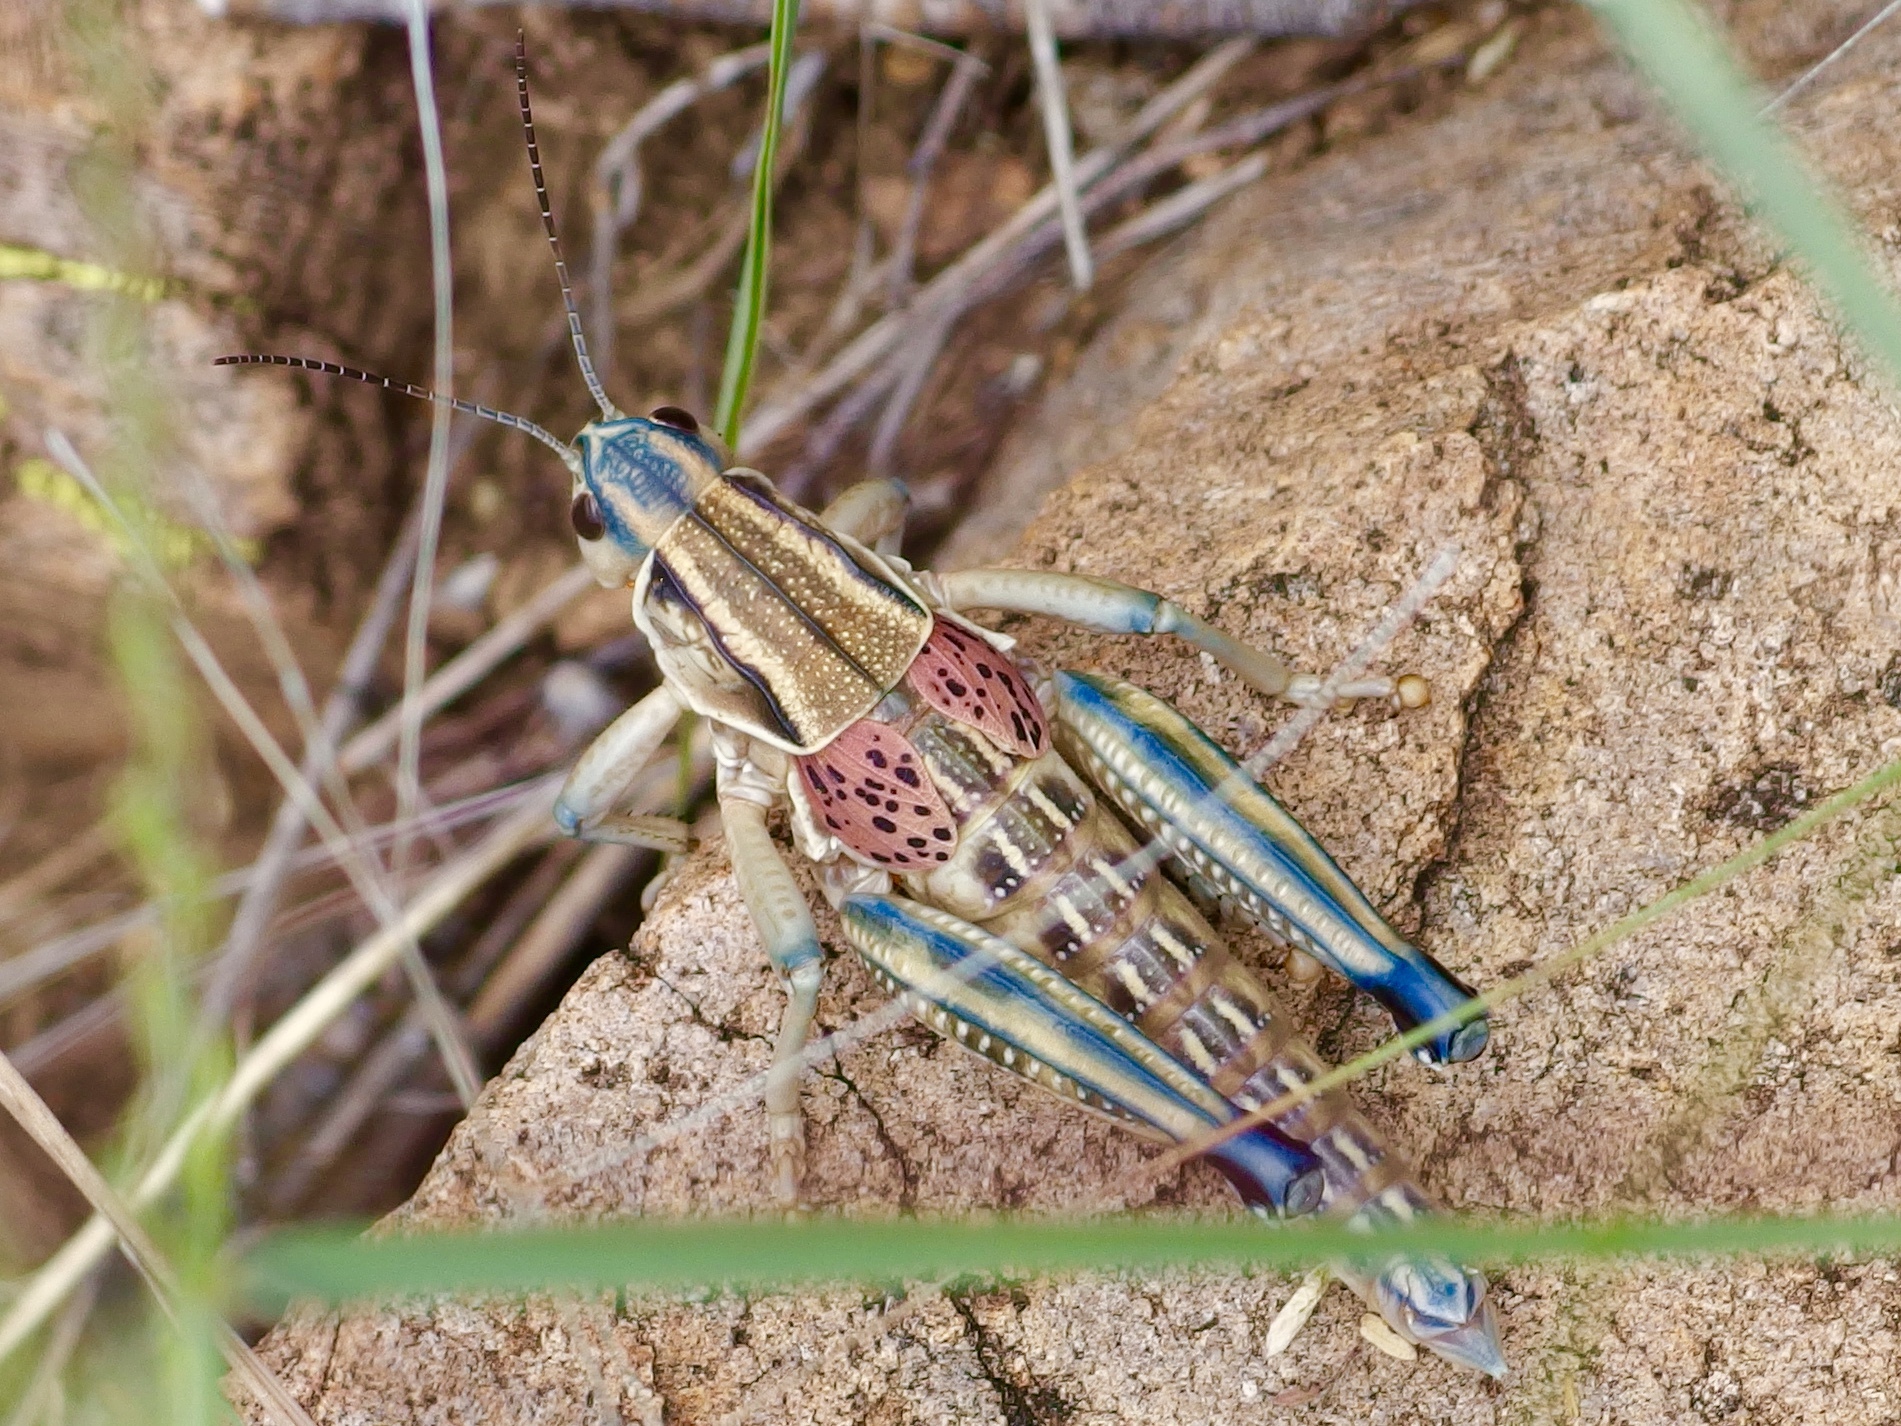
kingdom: Animalia
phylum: Arthropoda
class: Insecta
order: Orthoptera
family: Romaleidae
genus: Brachystola
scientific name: Brachystola magna
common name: Plains lubber grasshopper
